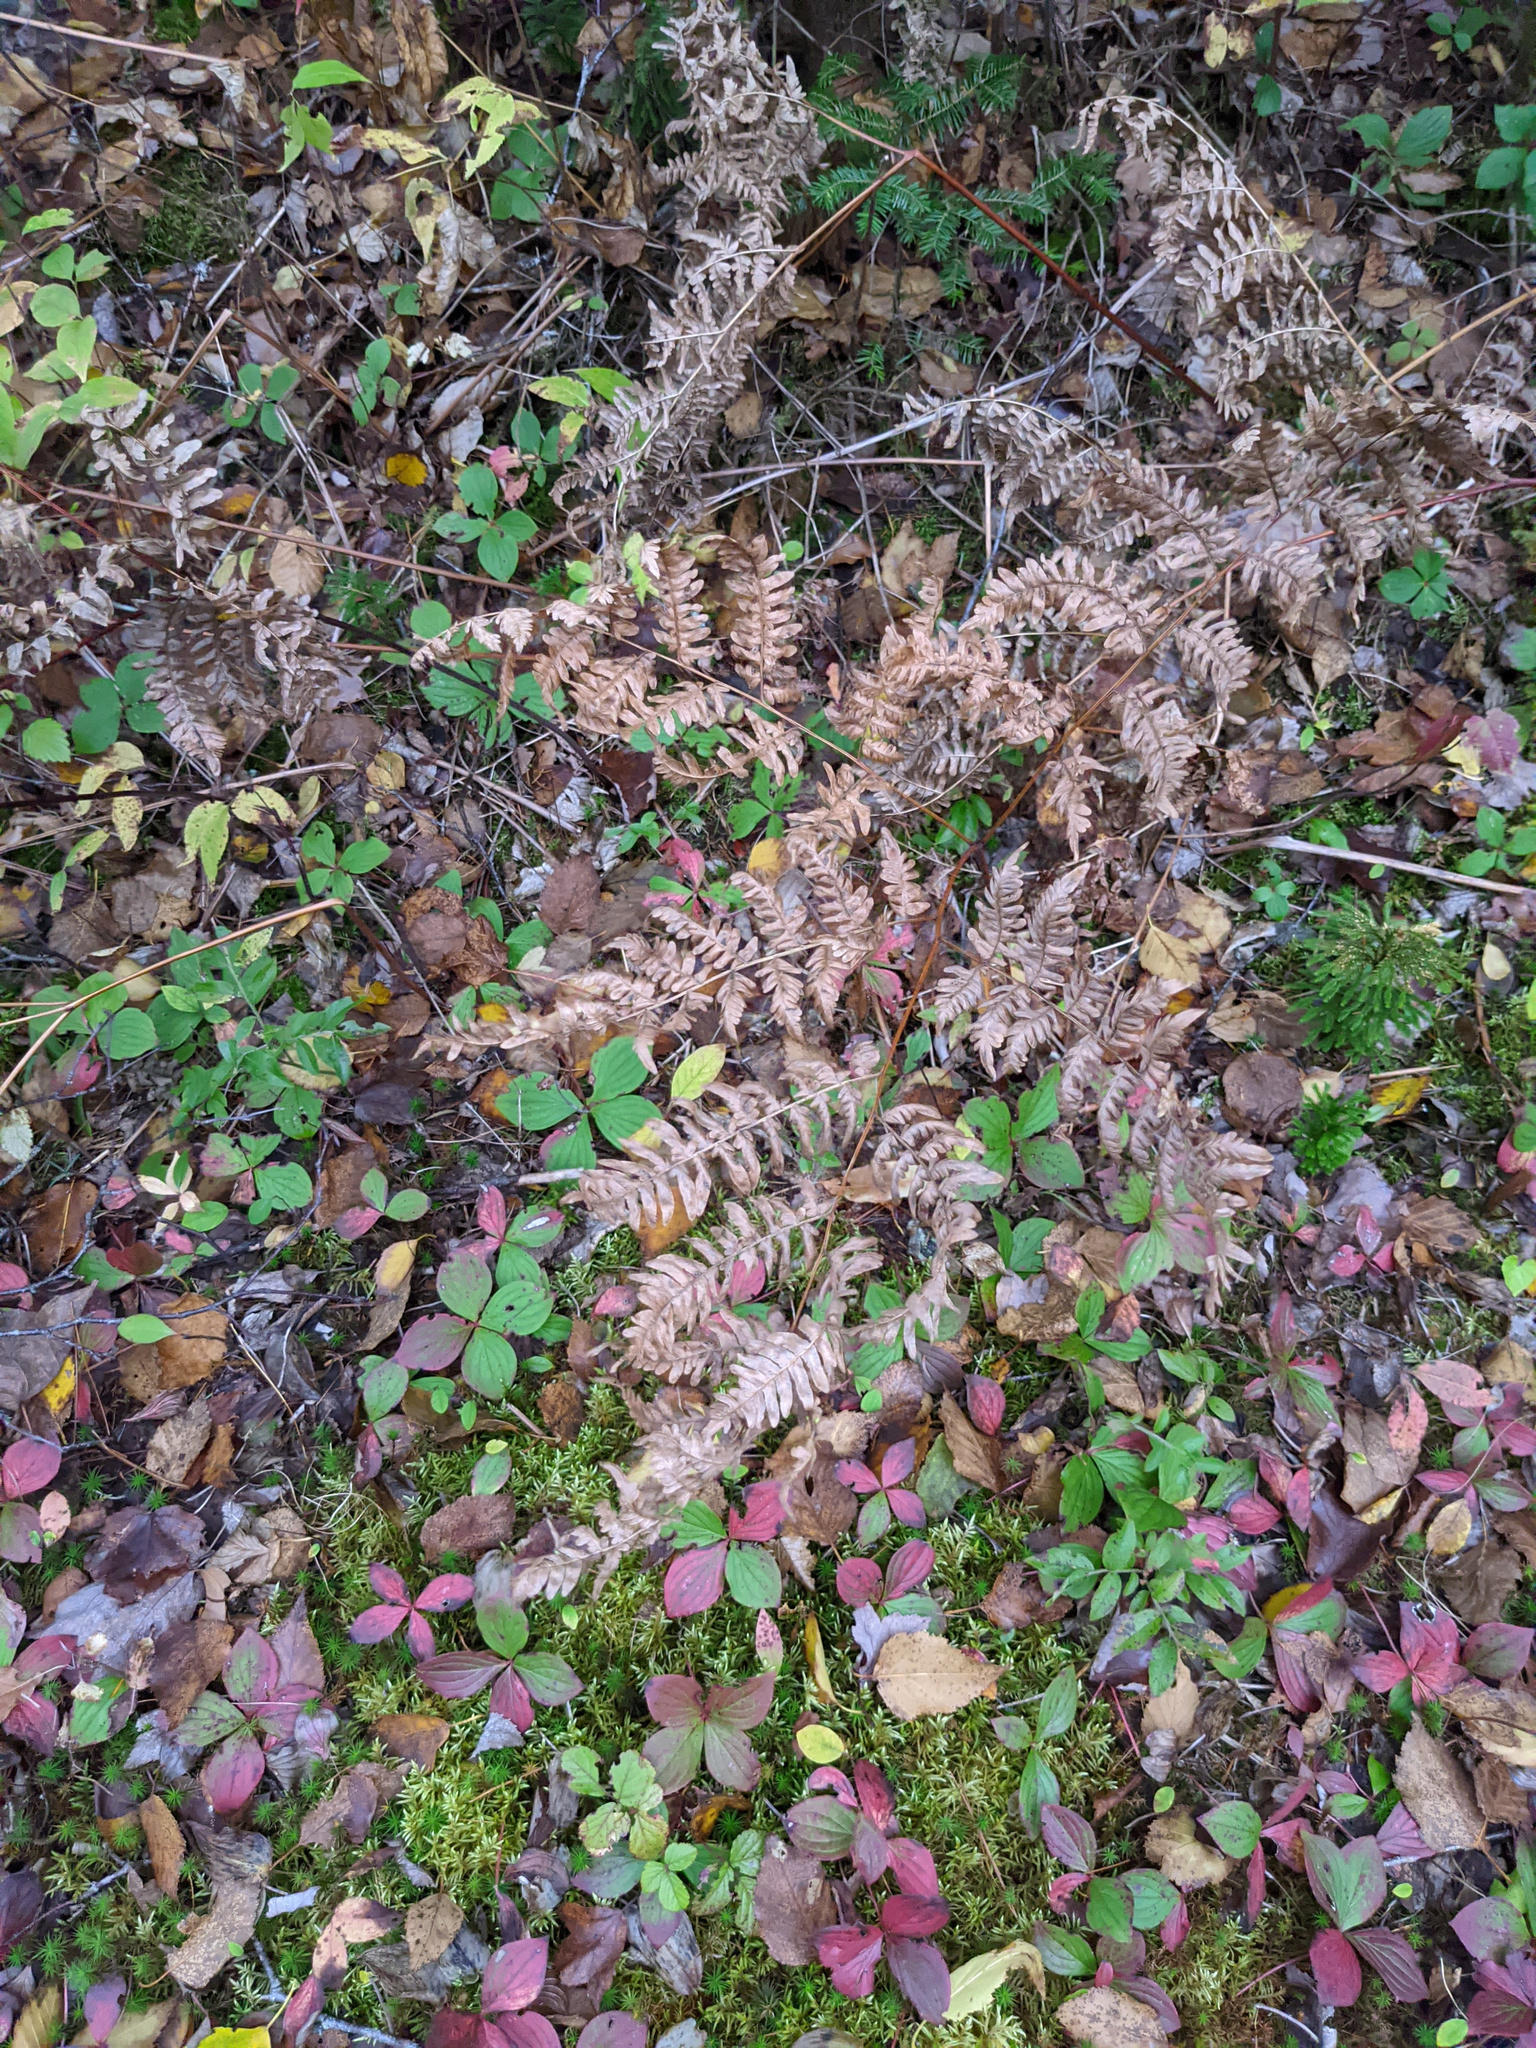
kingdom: Plantae
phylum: Tracheophyta
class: Polypodiopsida
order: Polypodiales
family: Dennstaedtiaceae
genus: Pteridium
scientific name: Pteridium aquilinum
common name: Bracken
